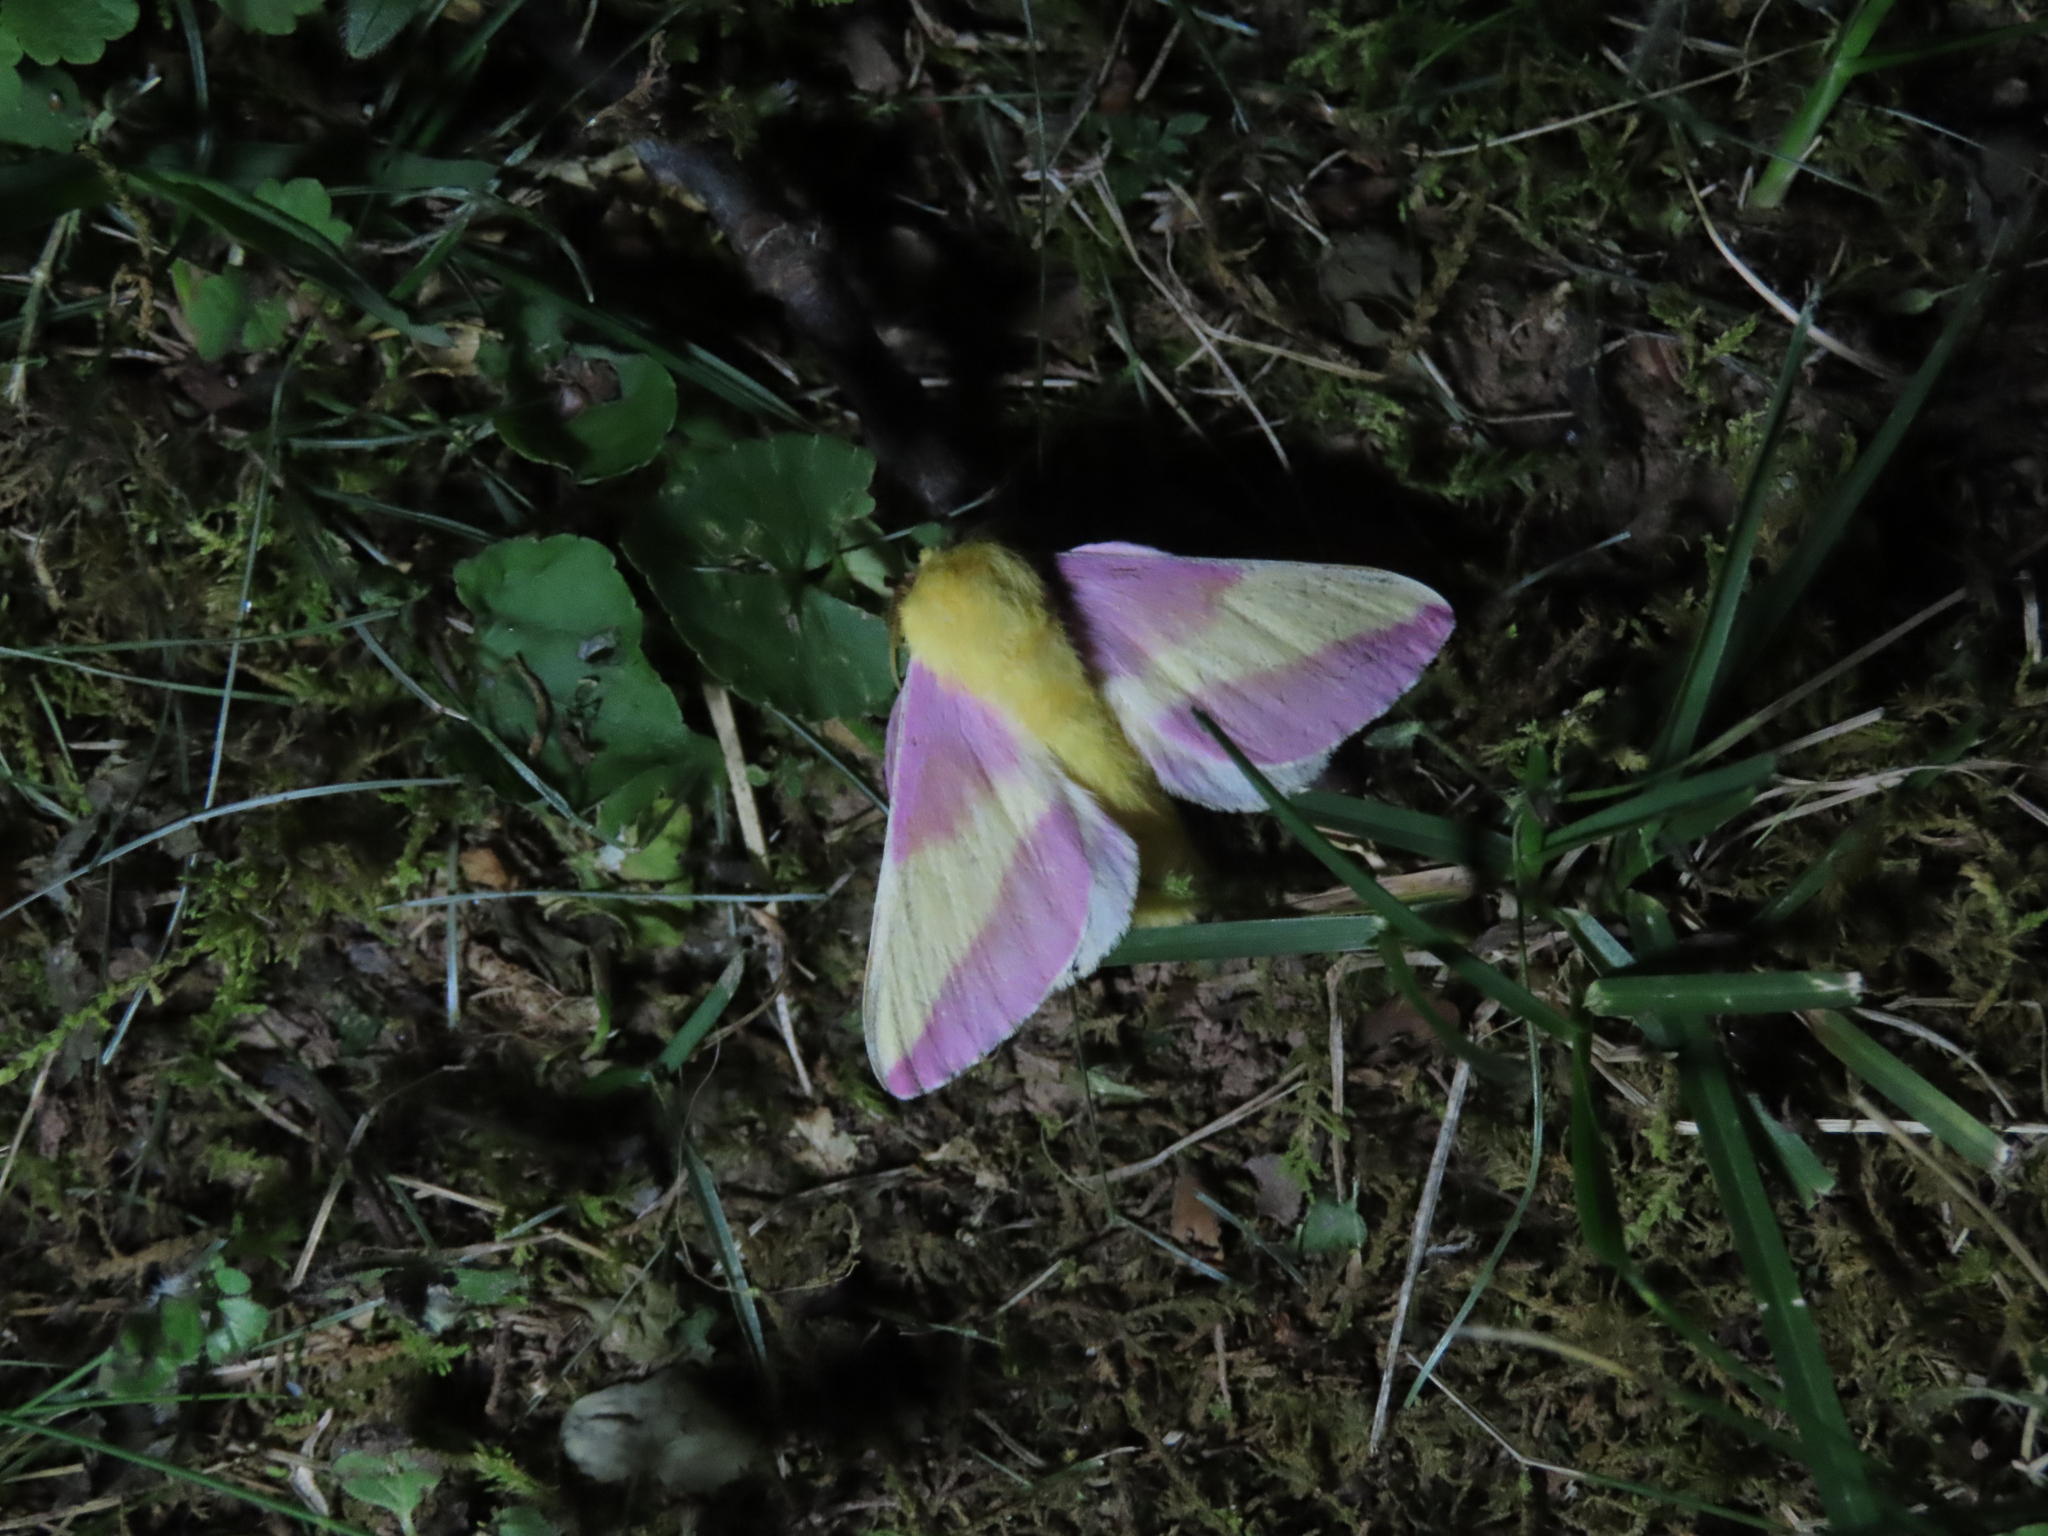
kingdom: Animalia
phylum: Arthropoda
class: Insecta
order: Lepidoptera
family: Saturniidae
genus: Dryocampa
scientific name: Dryocampa rubicunda
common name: Rosy maple moth
